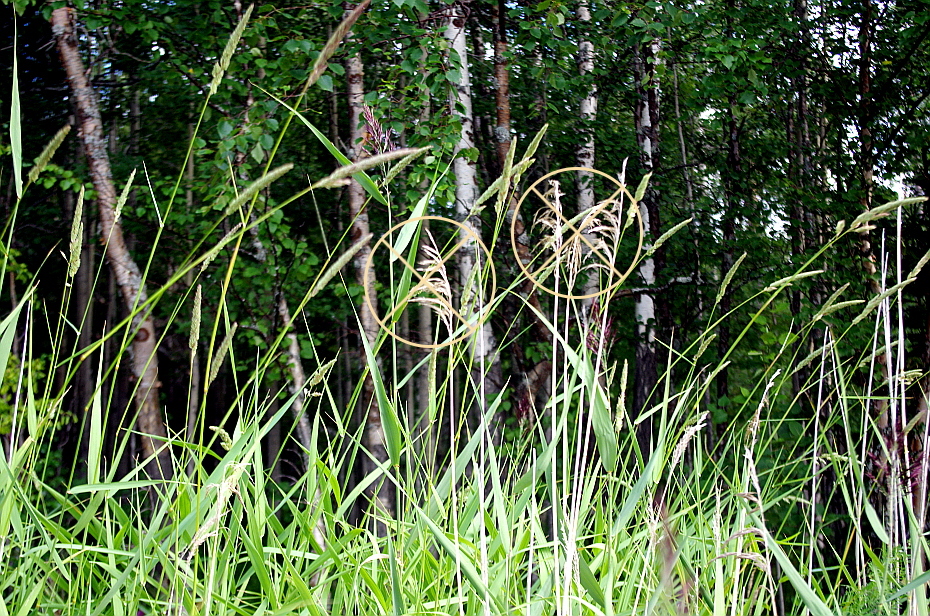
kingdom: Plantae
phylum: Tracheophyta
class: Liliopsida
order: Poales
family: Poaceae
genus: Phalaris
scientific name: Phalaris arundinacea
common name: Reed canary-grass
